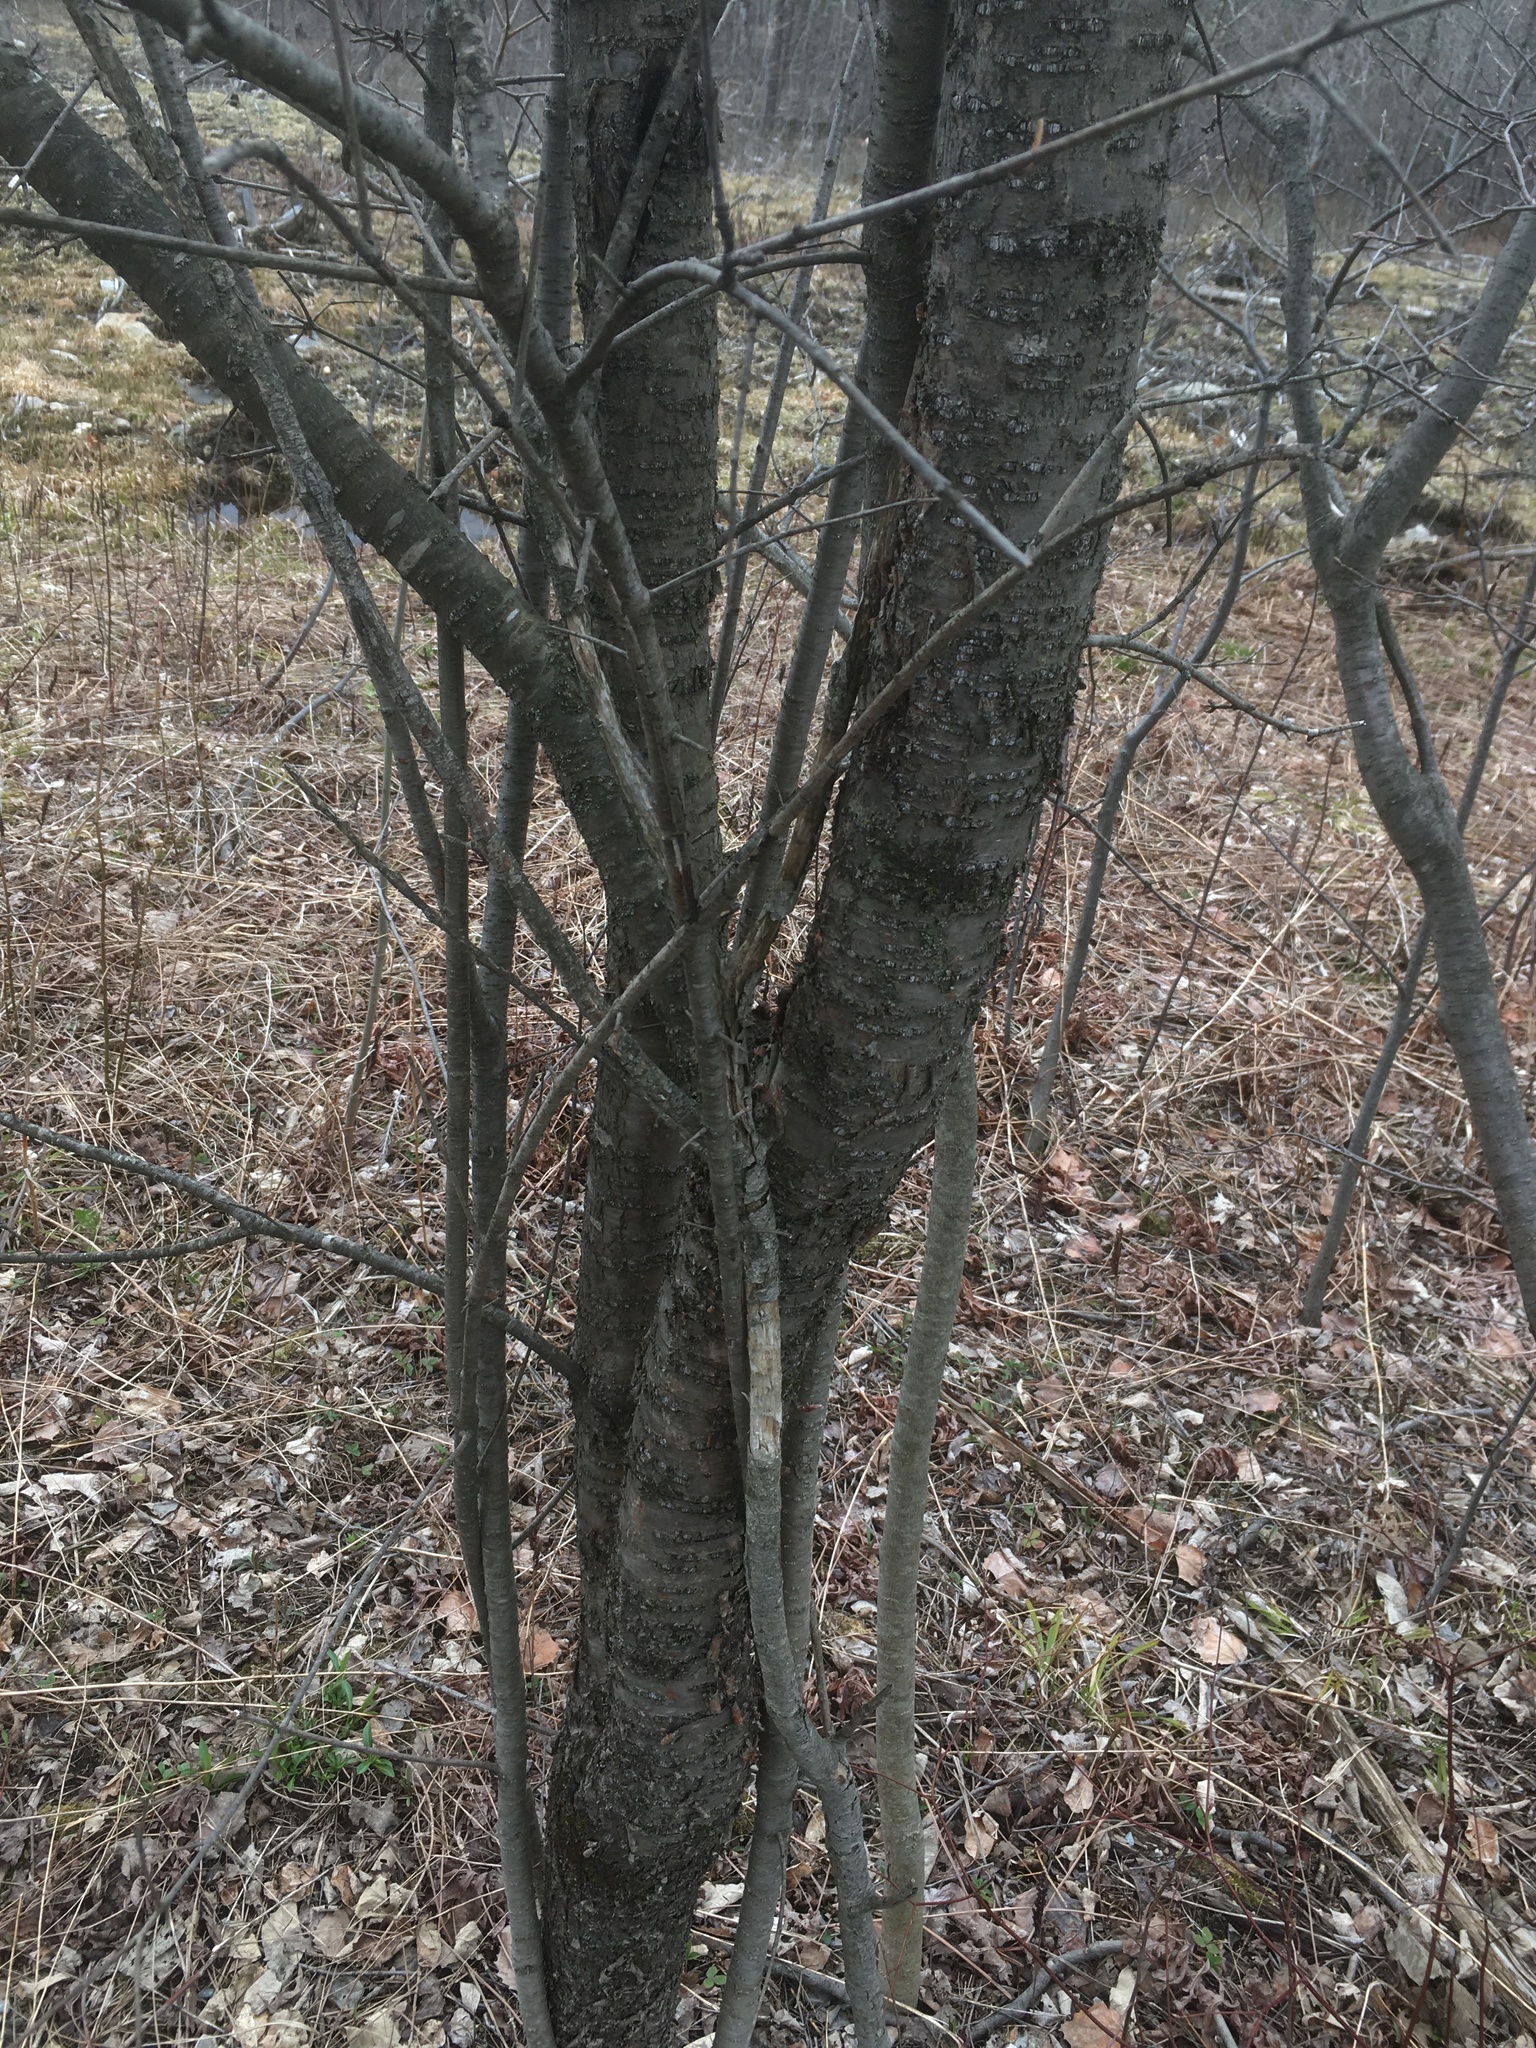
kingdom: Plantae
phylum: Tracheophyta
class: Magnoliopsida
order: Rosales
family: Rhamnaceae
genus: Rhamnus
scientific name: Rhamnus cathartica
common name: Common buckthorn
